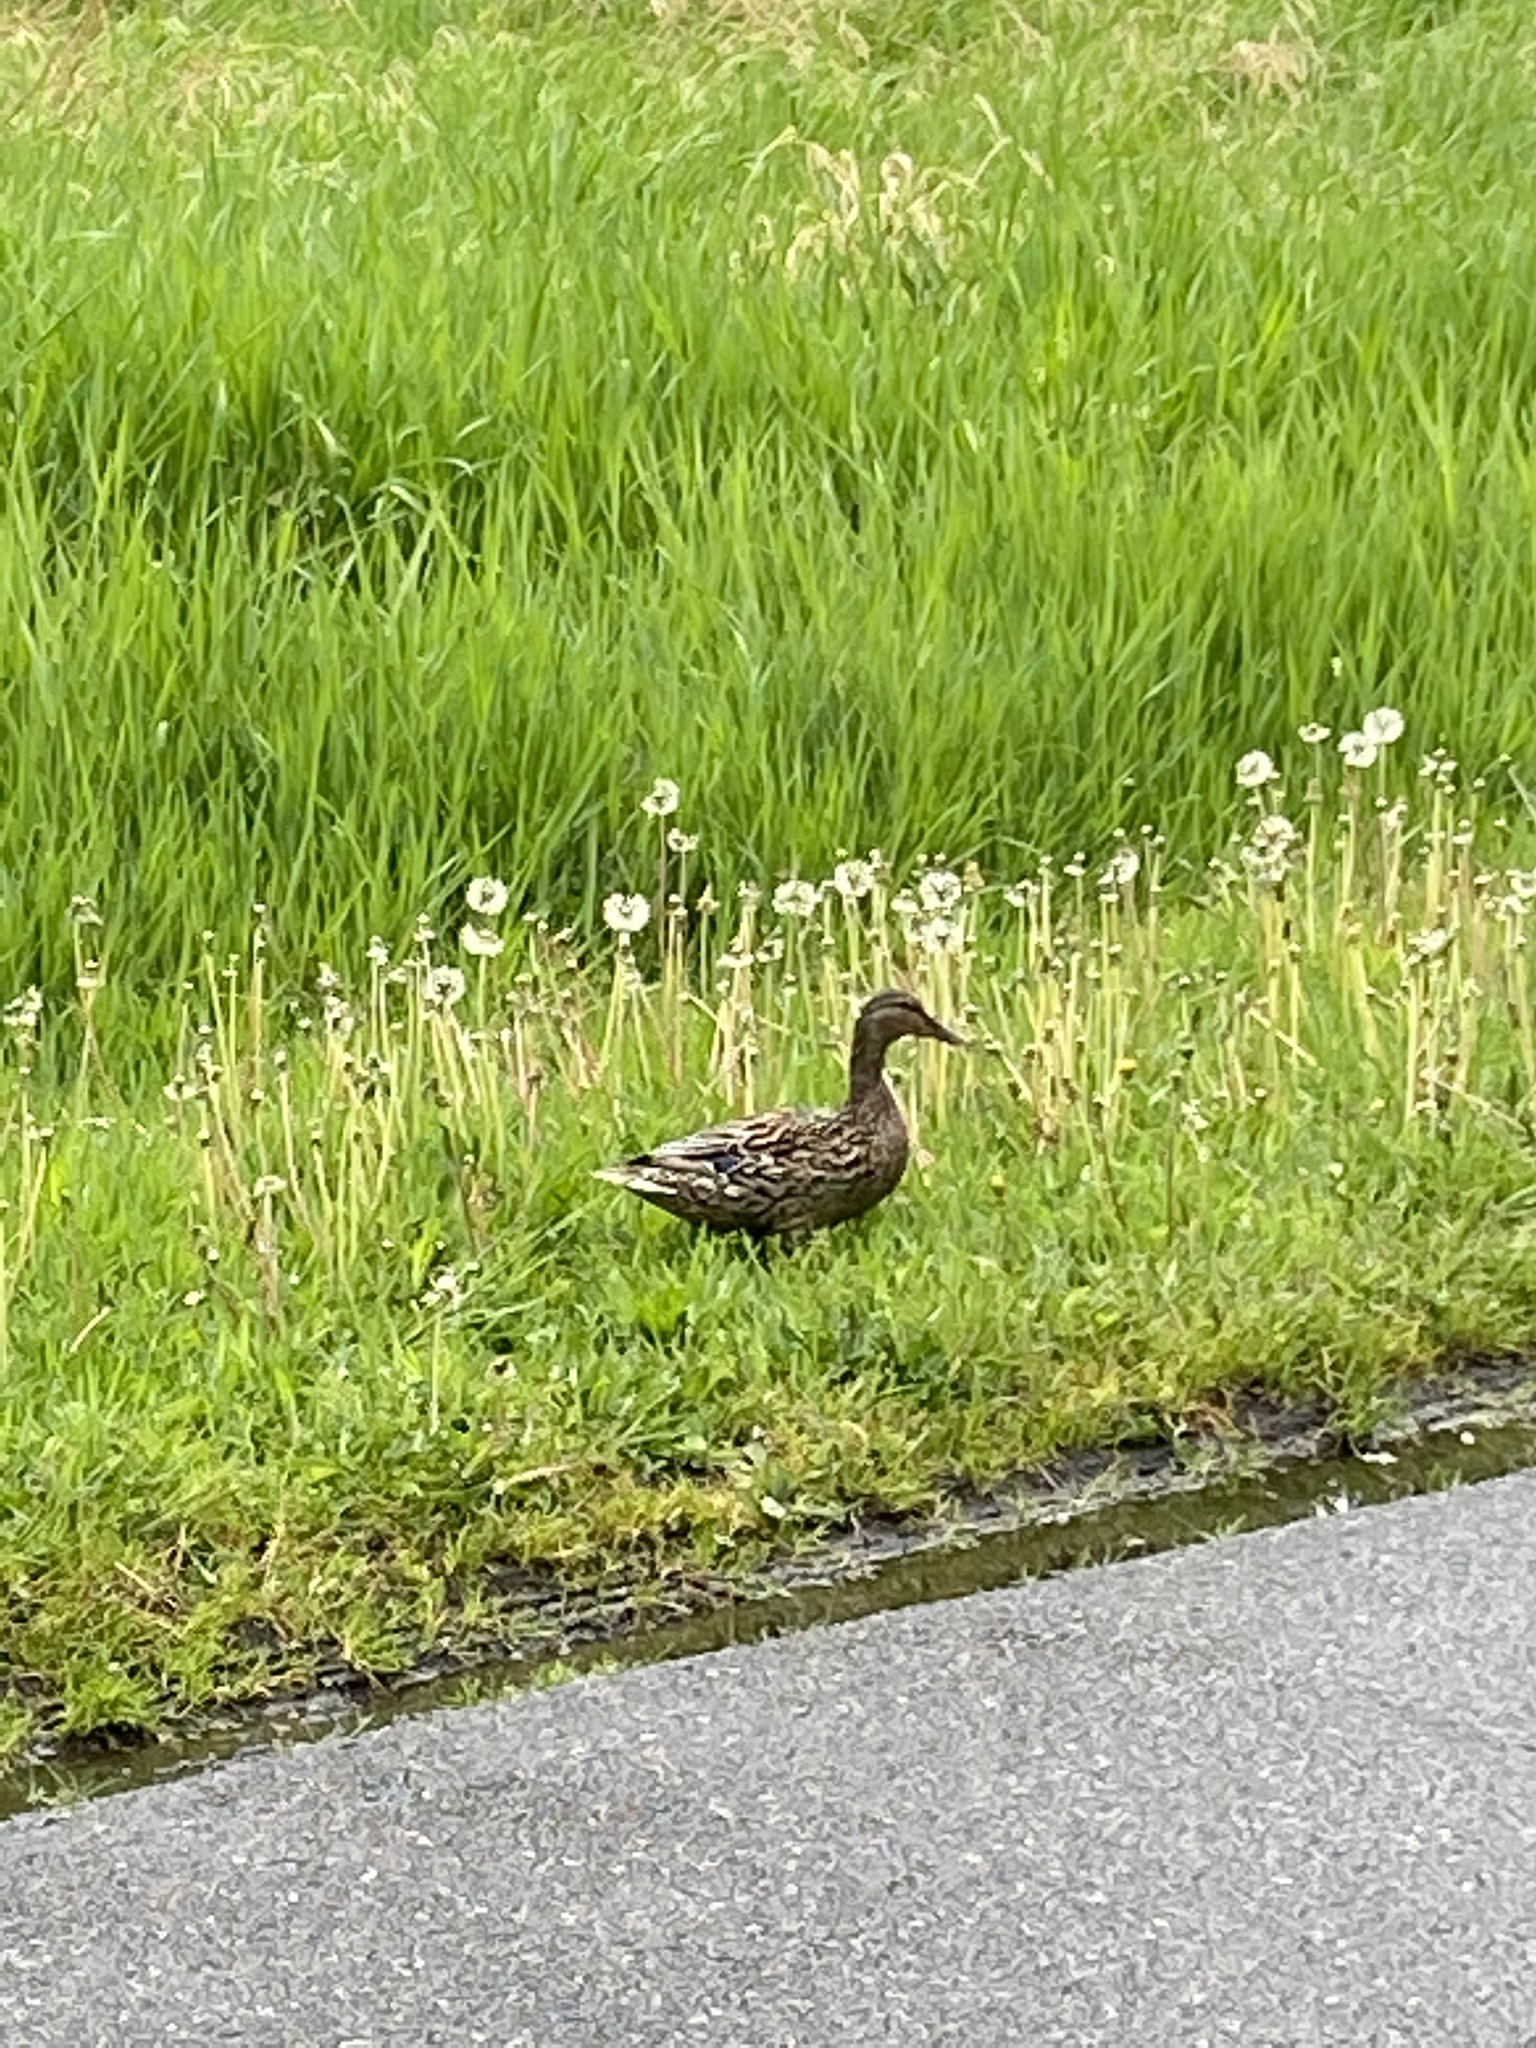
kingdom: Animalia
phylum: Chordata
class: Aves
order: Anseriformes
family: Anatidae
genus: Anas
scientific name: Anas platyrhynchos
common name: Mallard
